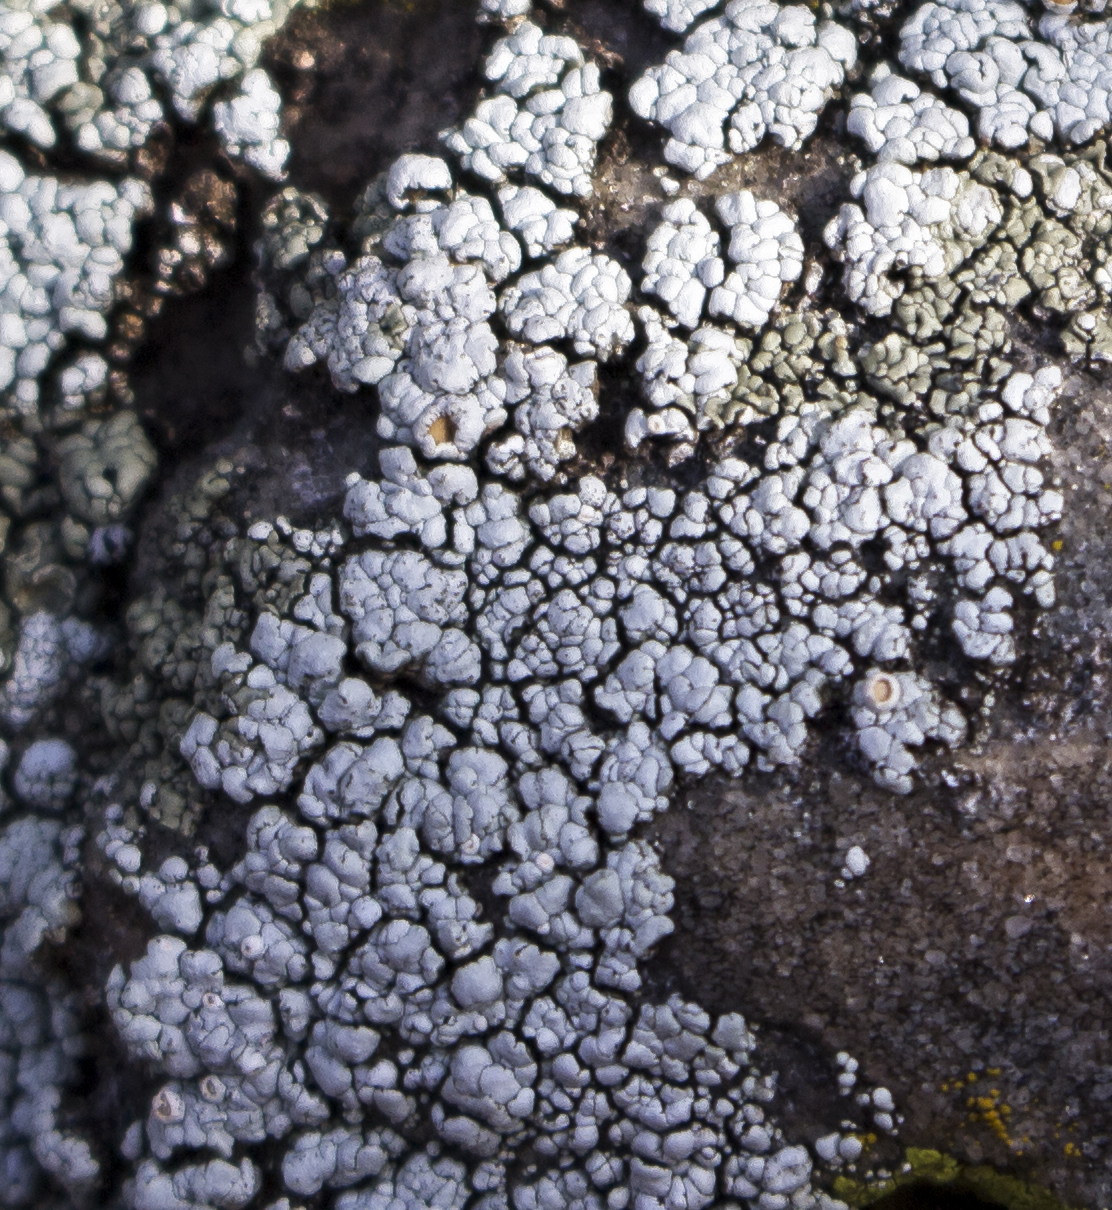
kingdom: Fungi
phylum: Ascomycota
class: Lecanoromycetes
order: Lecanorales
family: Lecanoraceae
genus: Sedelnikovaea
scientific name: Sedelnikovaea subdiscrepans
